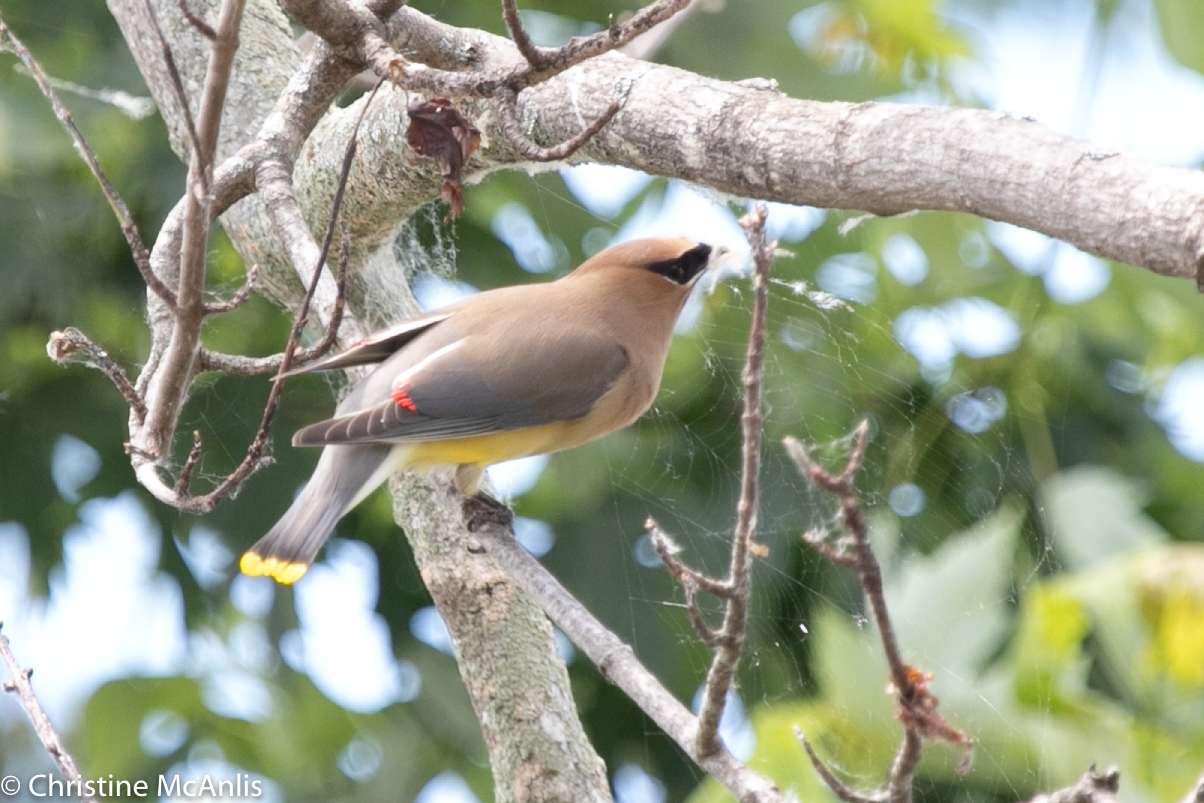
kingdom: Animalia
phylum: Chordata
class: Aves
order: Passeriformes
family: Bombycillidae
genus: Bombycilla
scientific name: Bombycilla cedrorum
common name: Cedar waxwing
